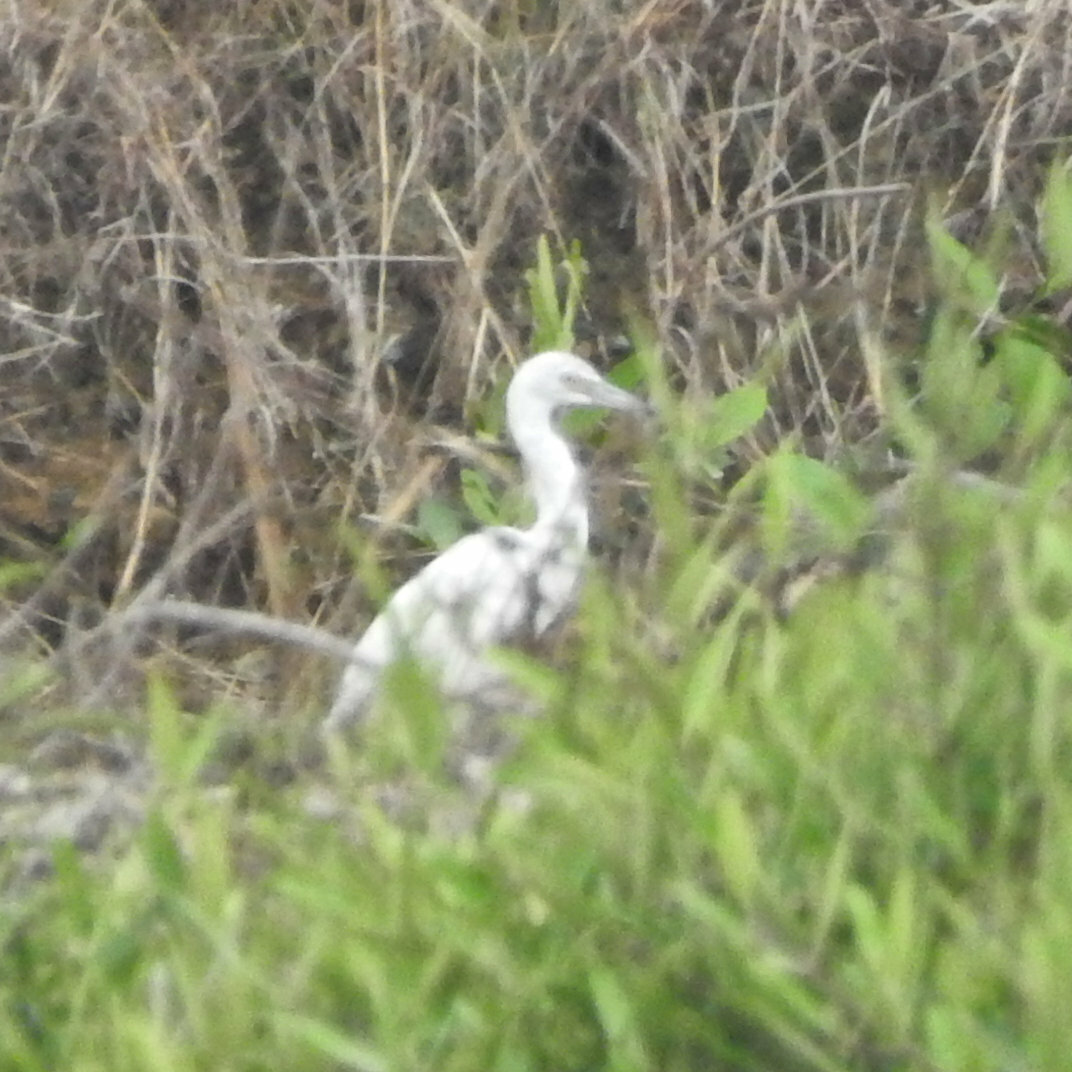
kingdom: Animalia
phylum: Chordata
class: Aves
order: Pelecaniformes
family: Ardeidae
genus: Egretta
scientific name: Egretta caerulea
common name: Little blue heron
